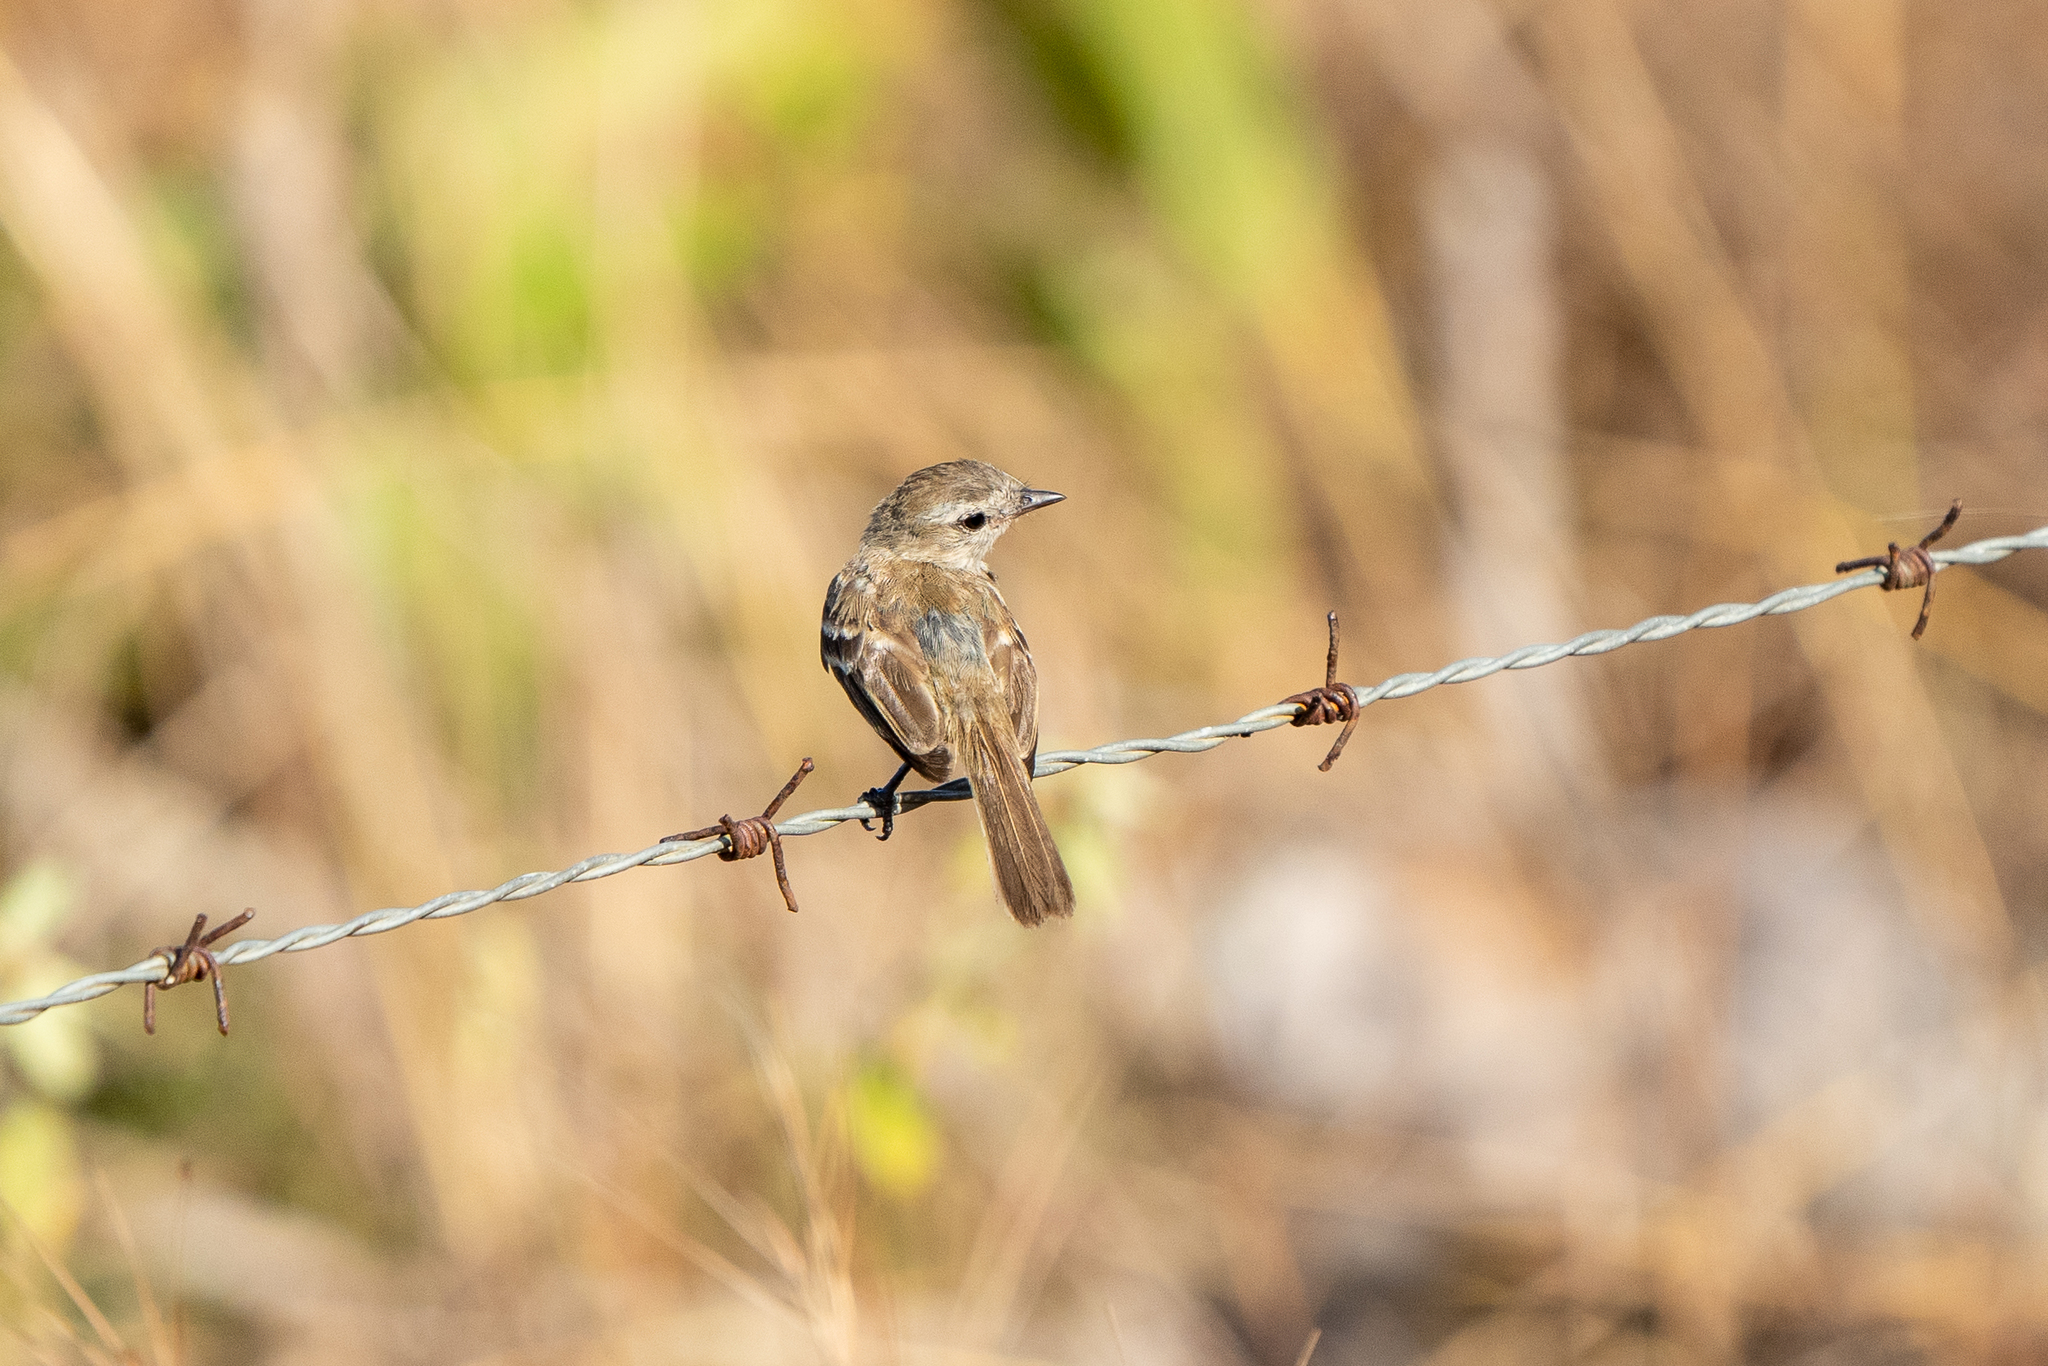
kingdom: Animalia
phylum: Chordata
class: Aves
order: Passeriformes
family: Tyrannidae
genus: Phaeomyias
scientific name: Phaeomyias murina
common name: Mouse-colored tyrannulet
